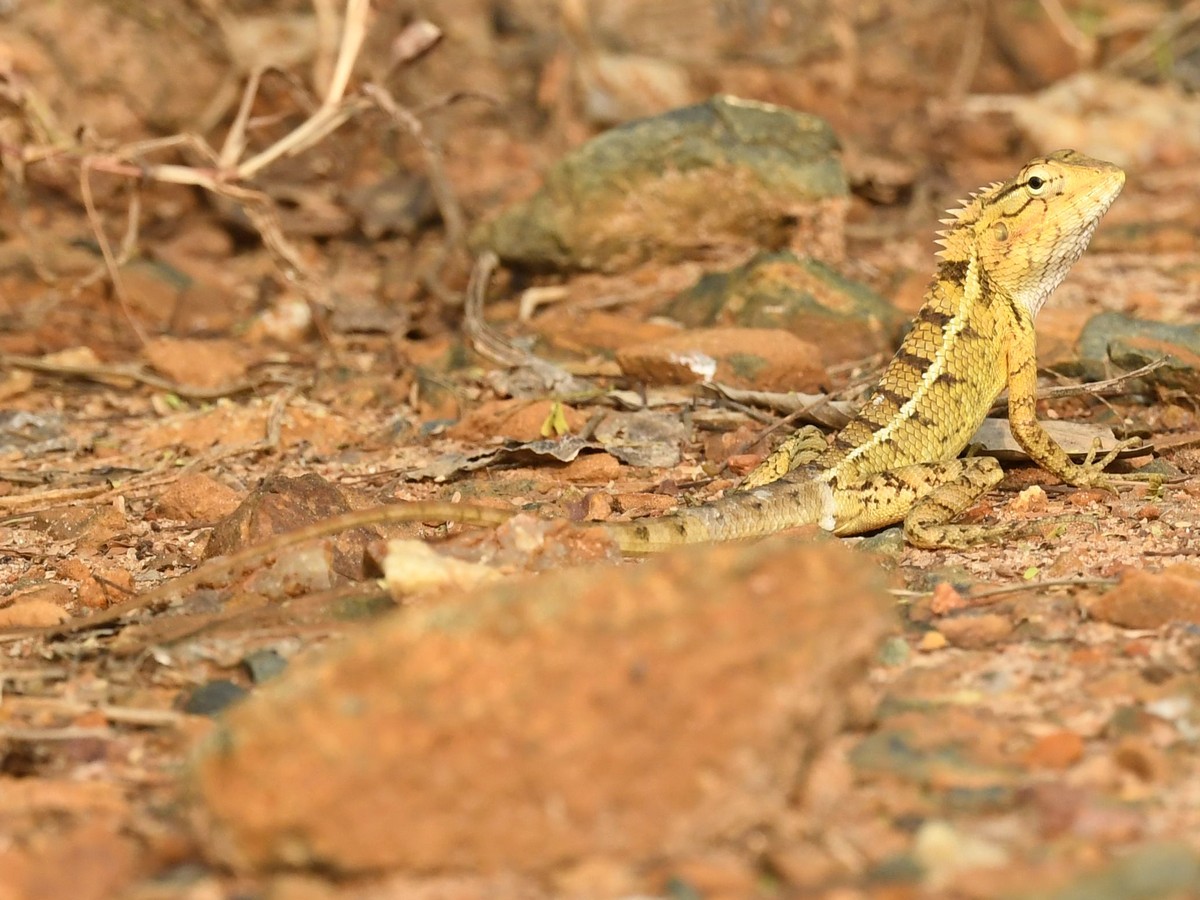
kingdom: Animalia
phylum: Chordata
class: Squamata
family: Agamidae
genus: Calotes
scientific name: Calotes versicolor
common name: Oriental garden lizard
